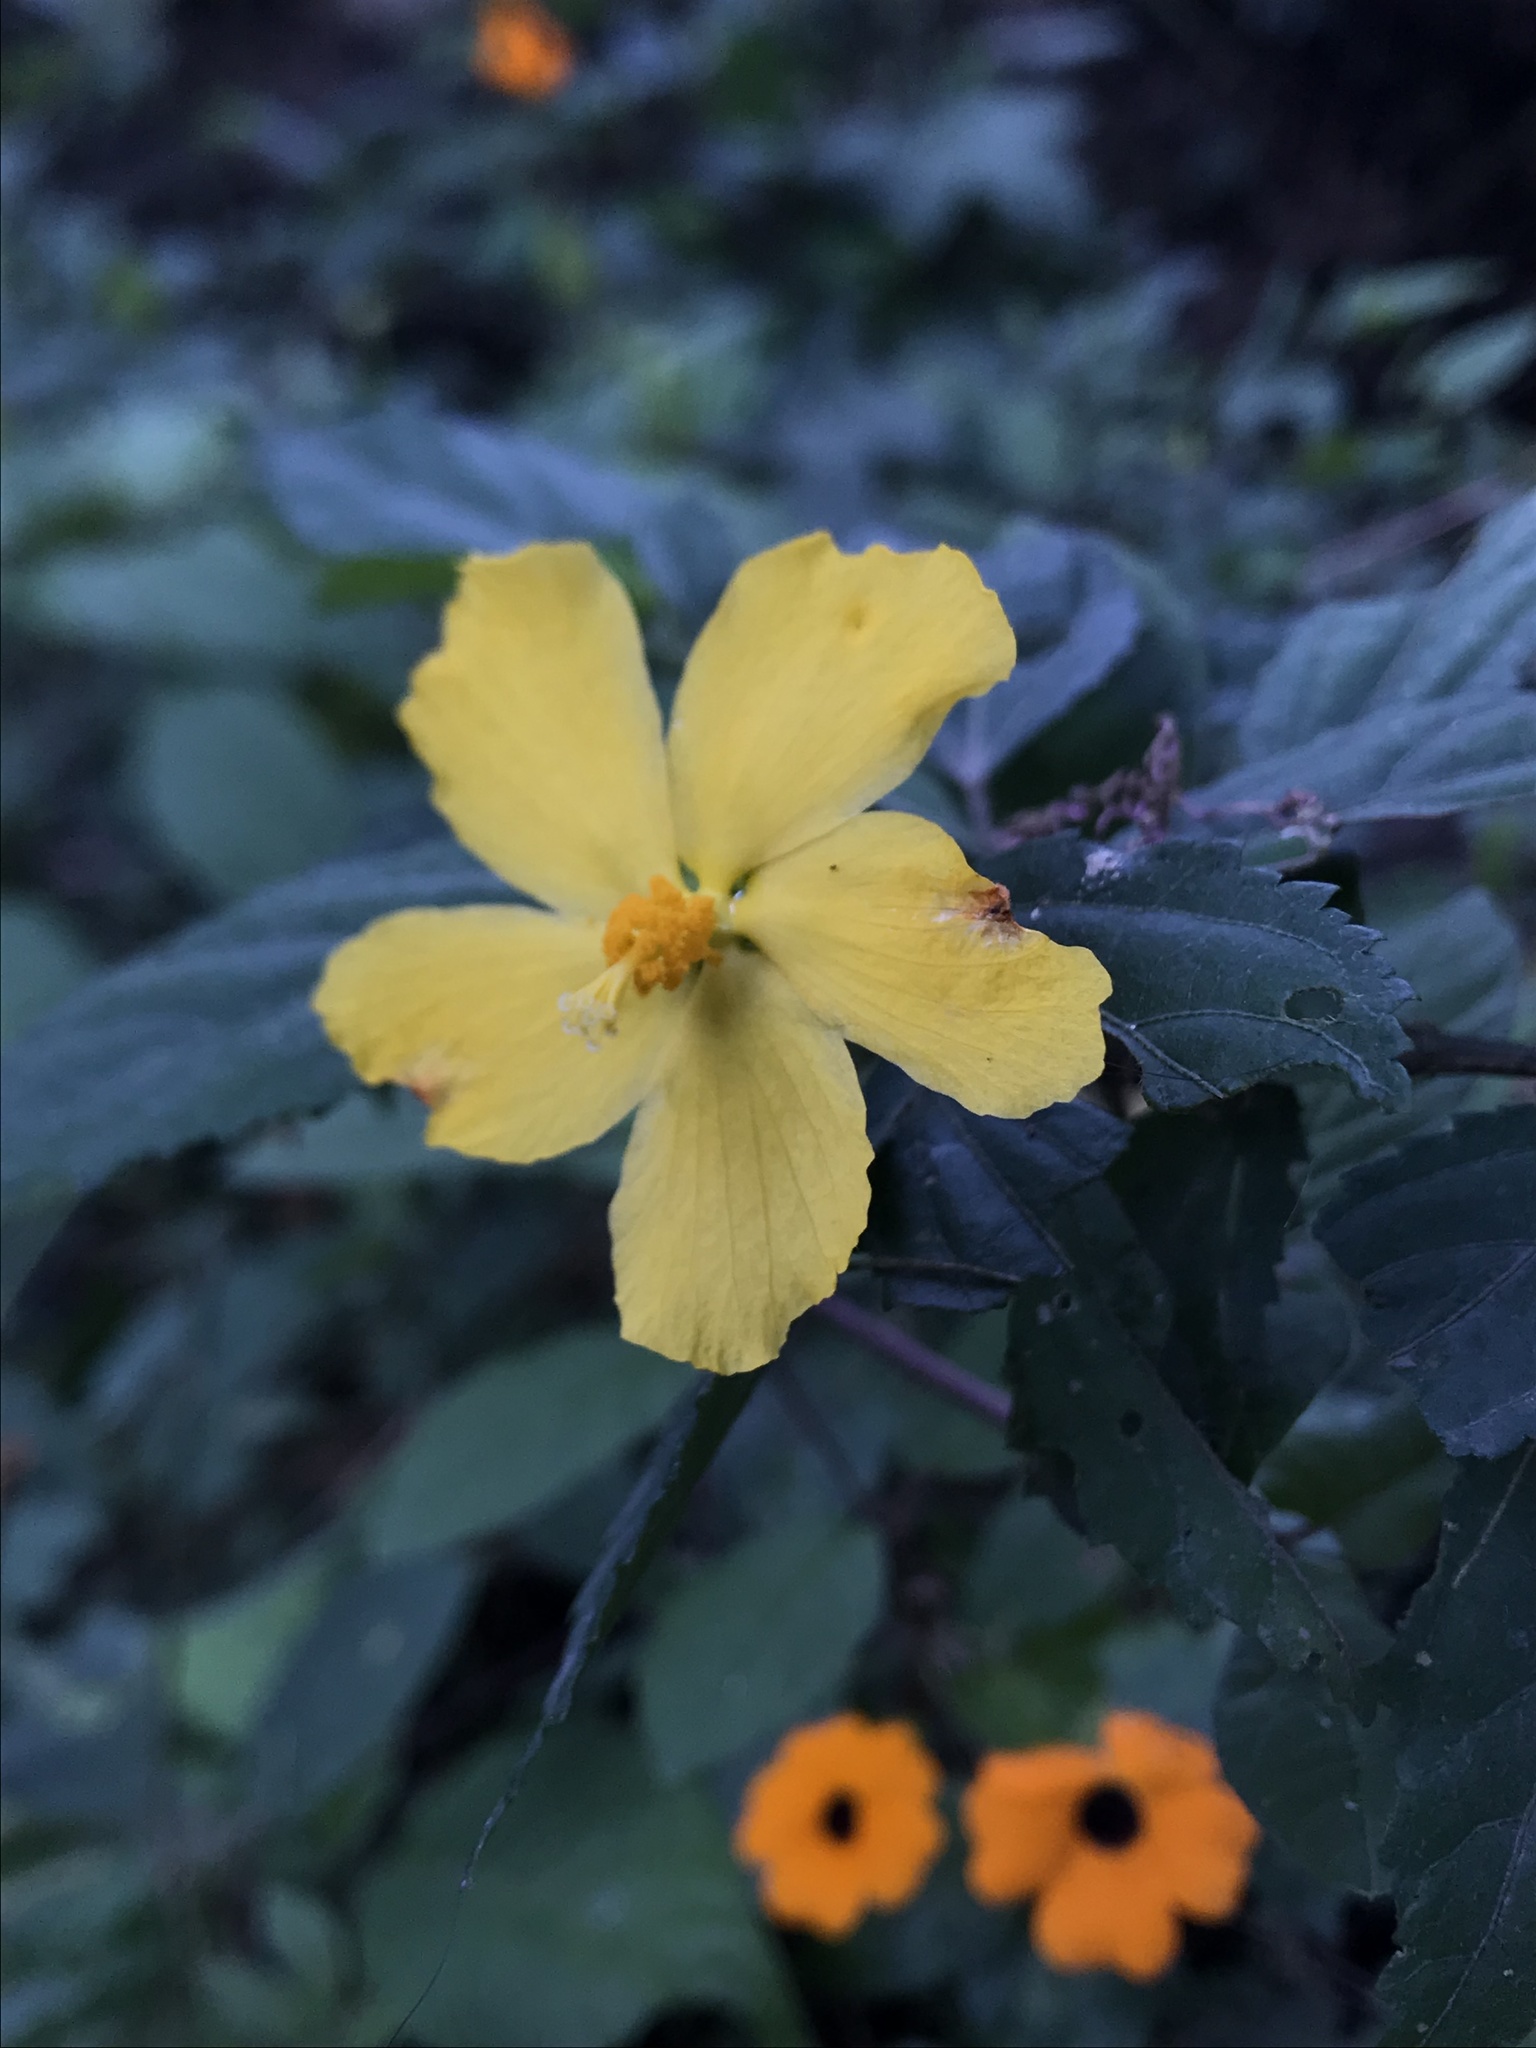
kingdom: Plantae
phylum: Tracheophyta
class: Magnoliopsida
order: Malvales
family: Malvaceae
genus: Pavonia
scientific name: Pavonia sepioides
